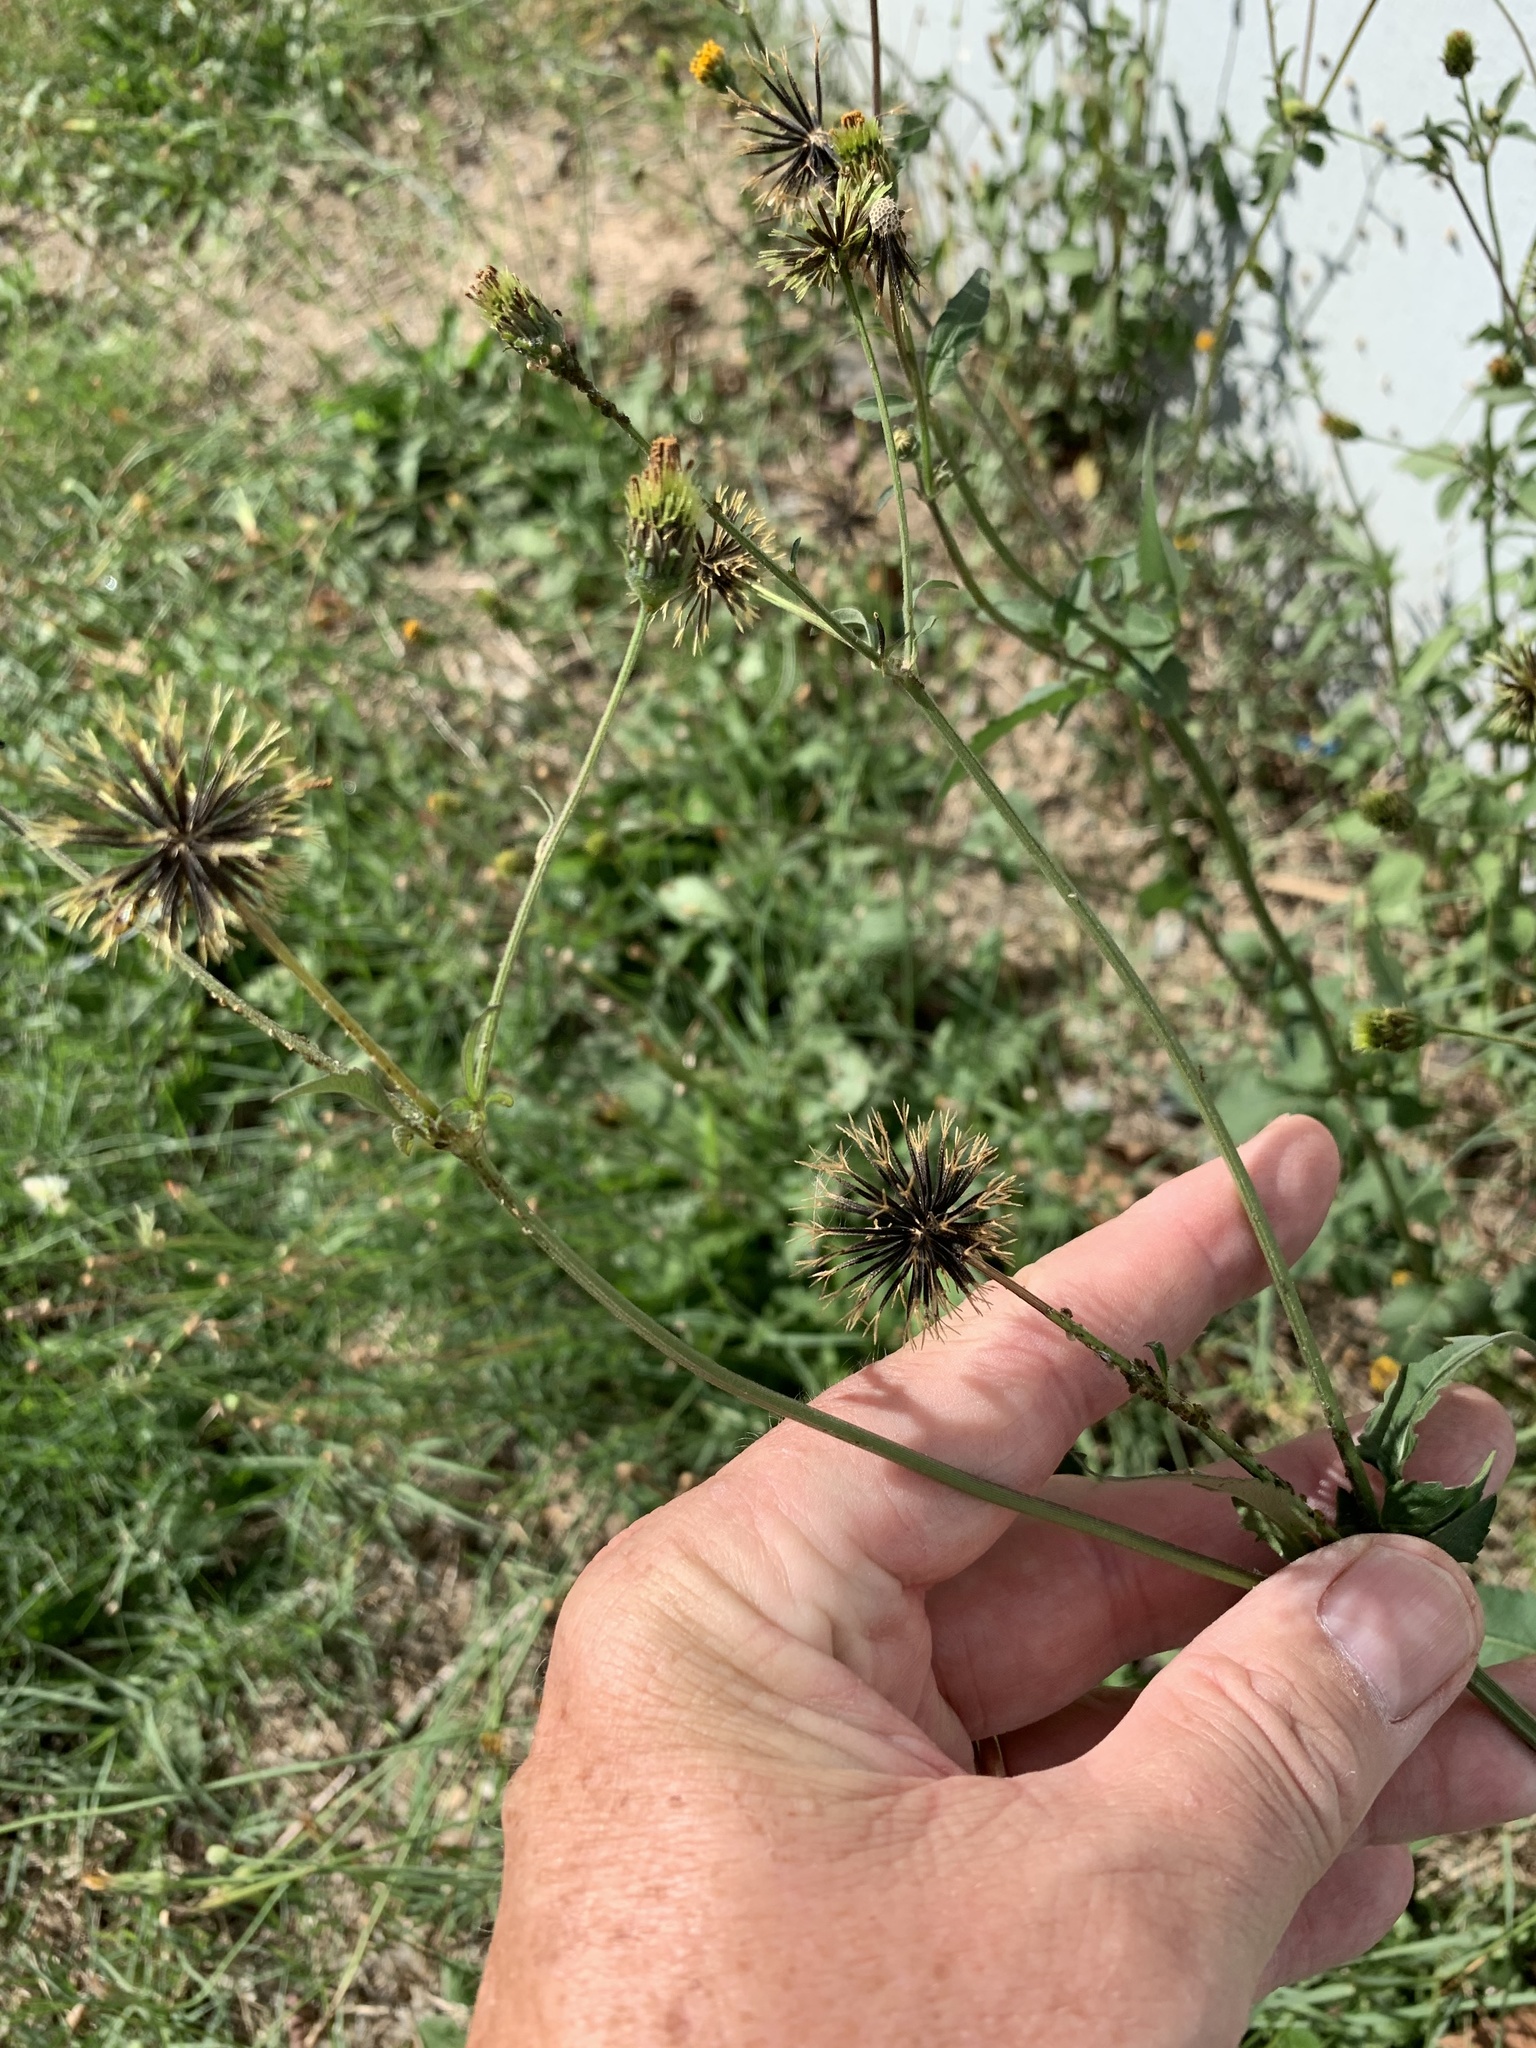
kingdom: Plantae
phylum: Tracheophyta
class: Magnoliopsida
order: Asterales
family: Asteraceae
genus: Bidens
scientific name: Bidens pilosa
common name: Black-jack
